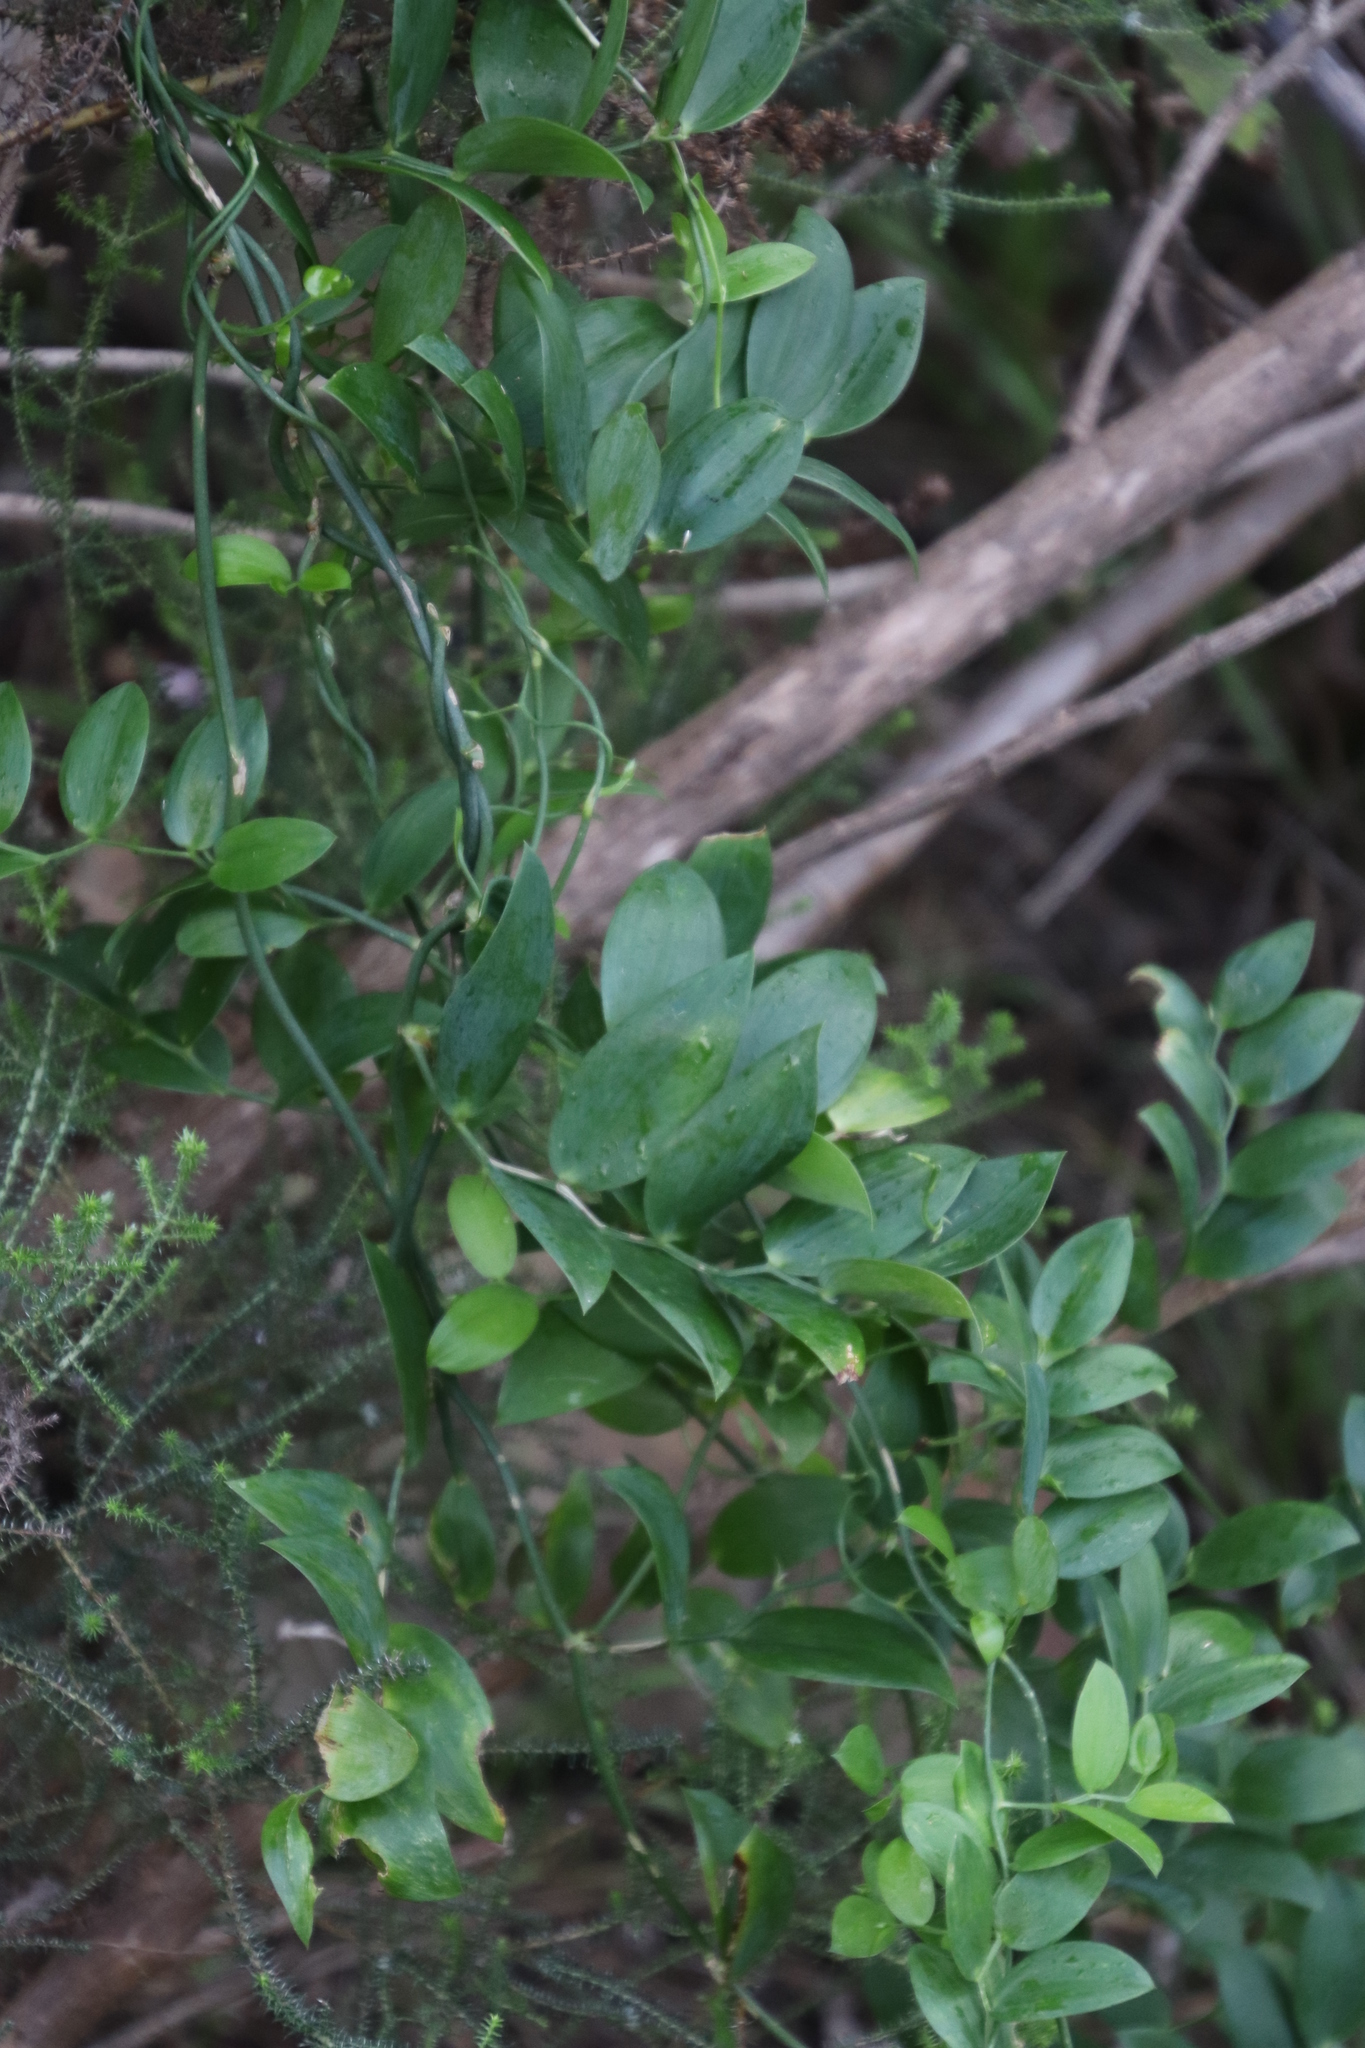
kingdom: Plantae
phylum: Tracheophyta
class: Liliopsida
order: Asparagales
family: Asparagaceae
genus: Asparagus
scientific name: Asparagus ovatus
